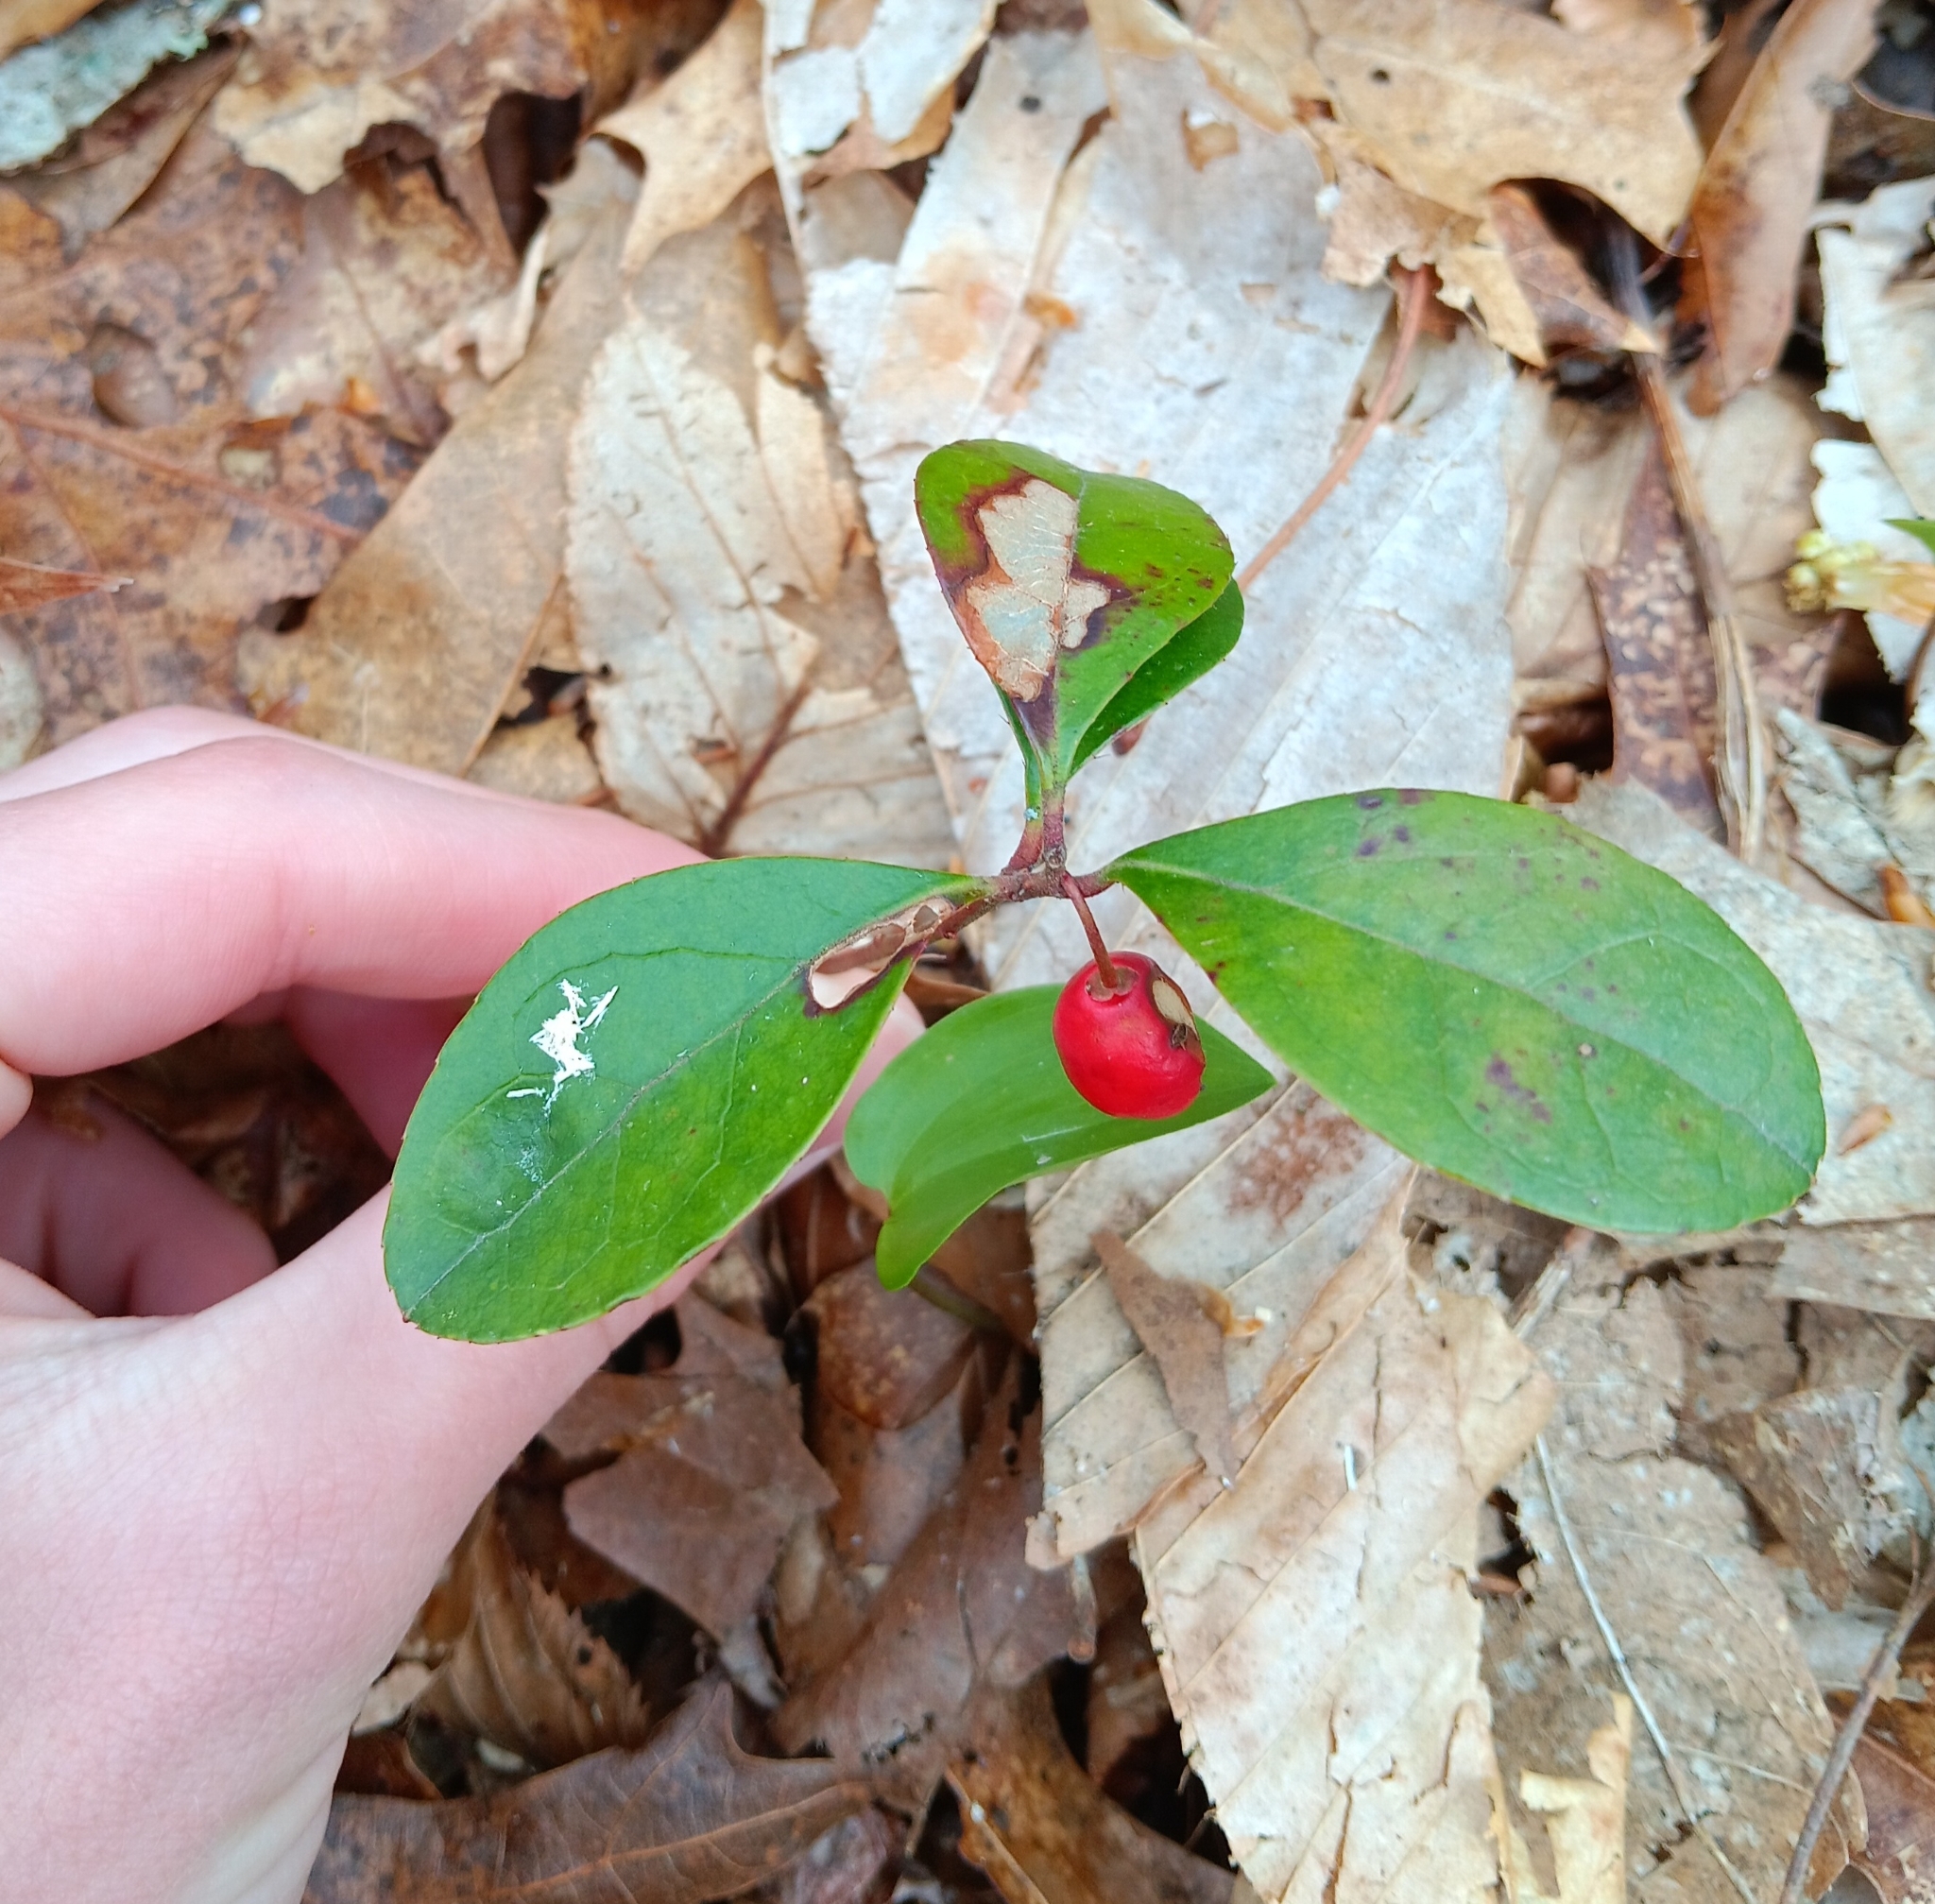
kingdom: Plantae
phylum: Tracheophyta
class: Magnoliopsida
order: Ericales
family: Ericaceae
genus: Gaultheria
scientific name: Gaultheria procumbens
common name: Checkerberry
